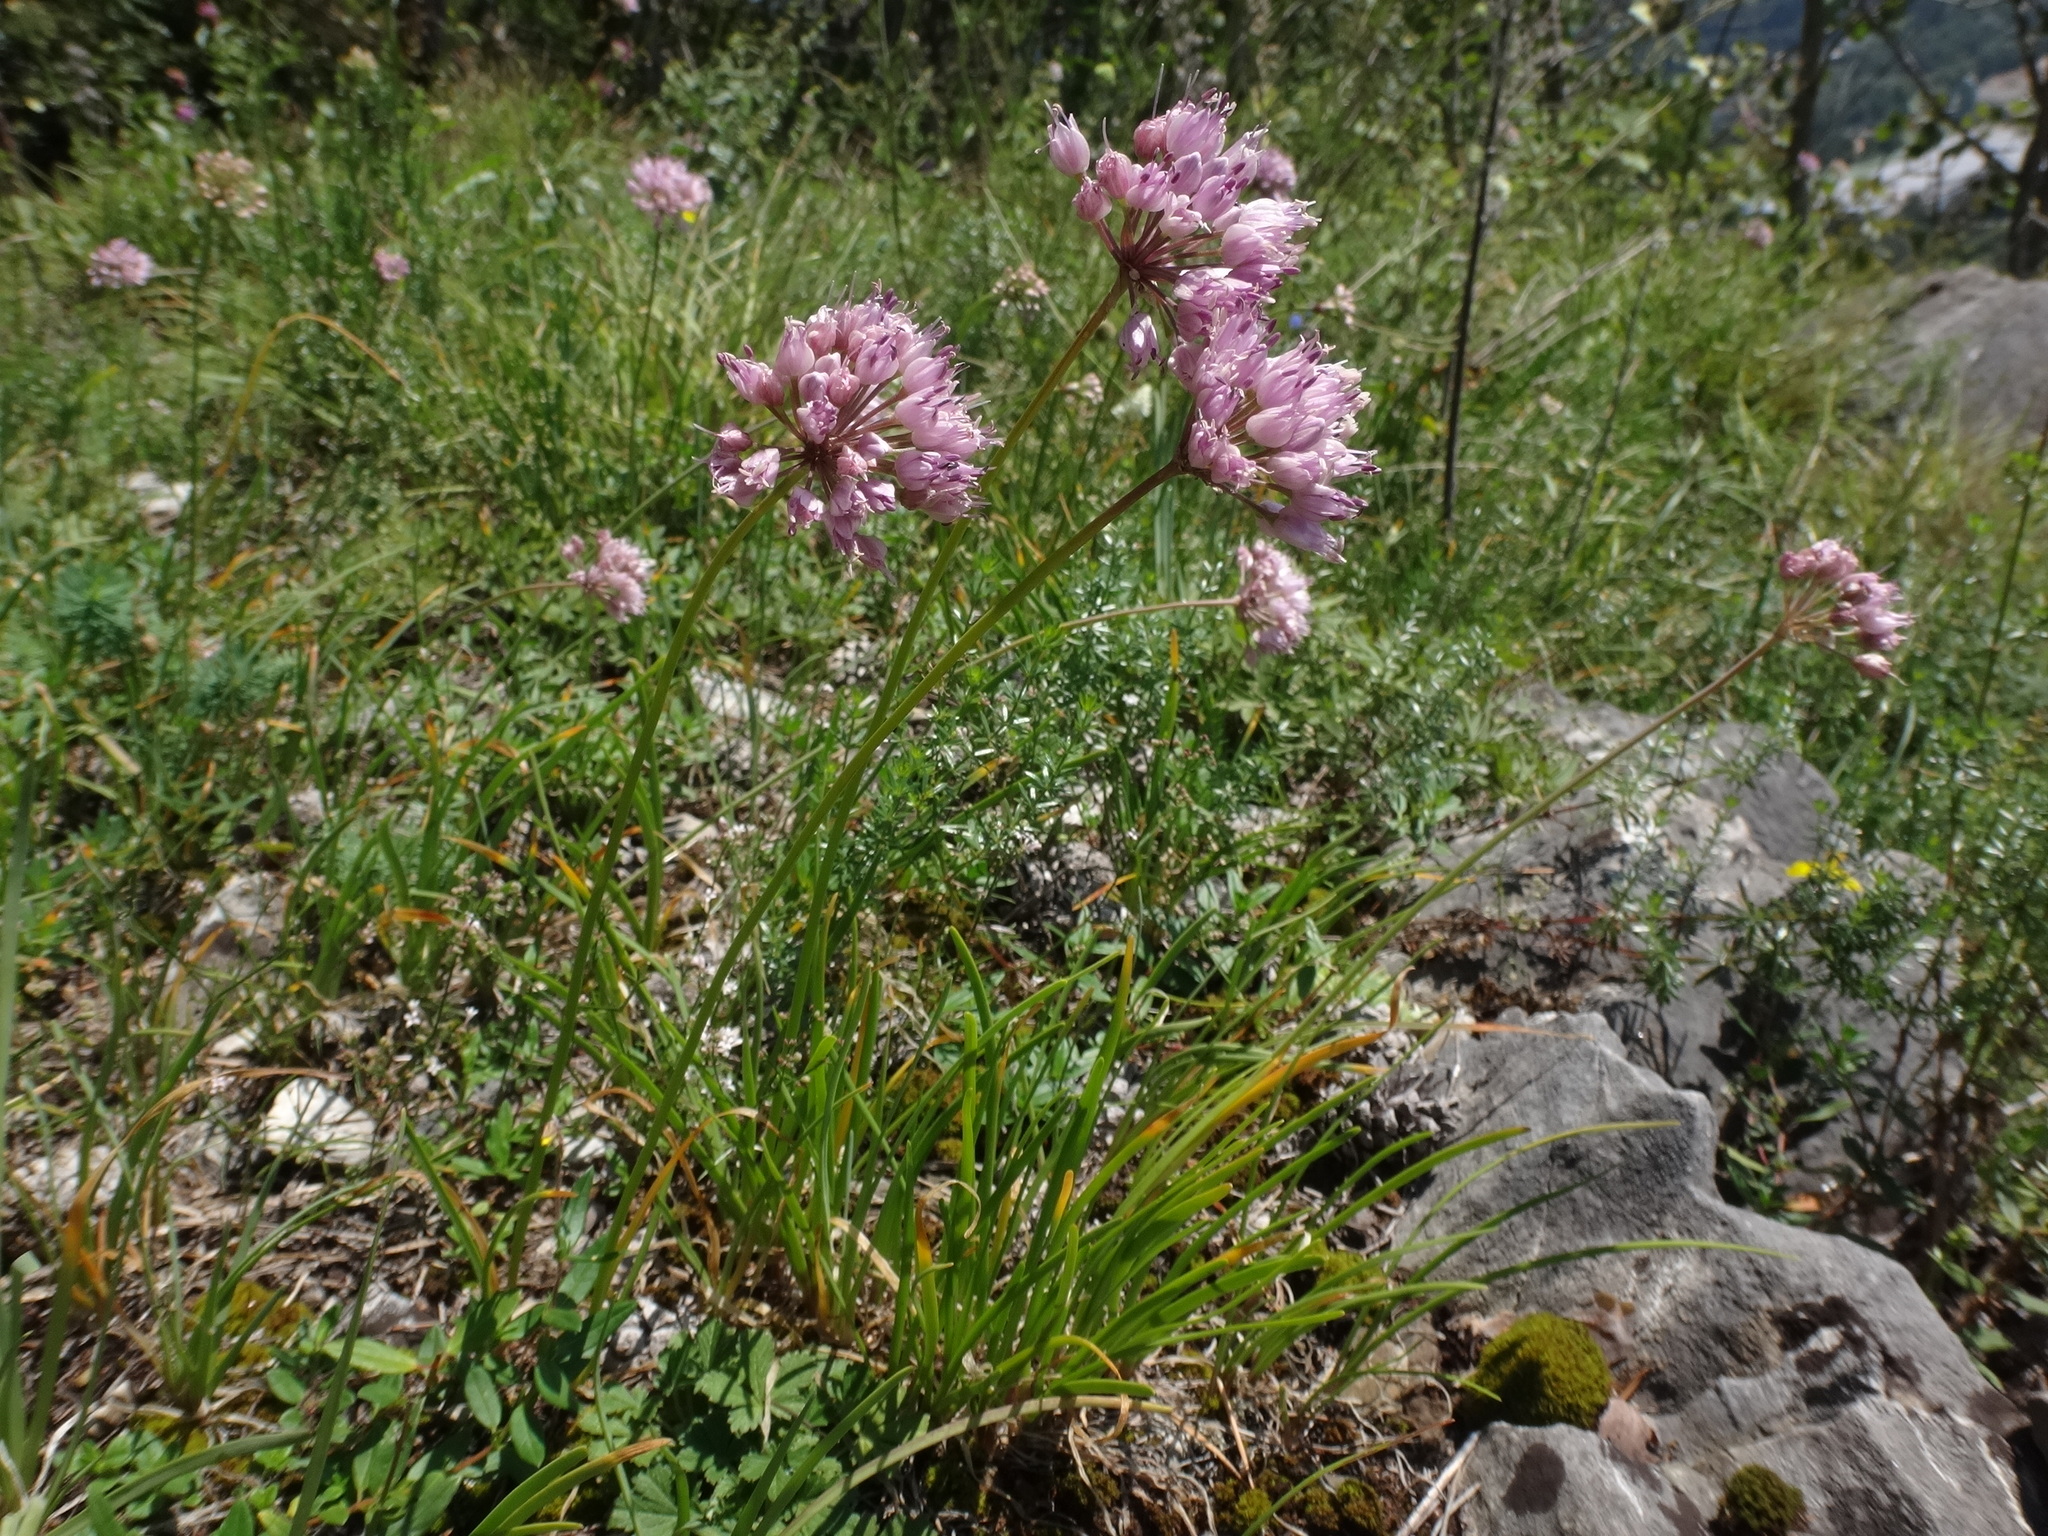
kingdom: Plantae
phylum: Tracheophyta
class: Liliopsida
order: Asparagales
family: Amaryllidaceae
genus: Allium
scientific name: Allium lusitanicum
